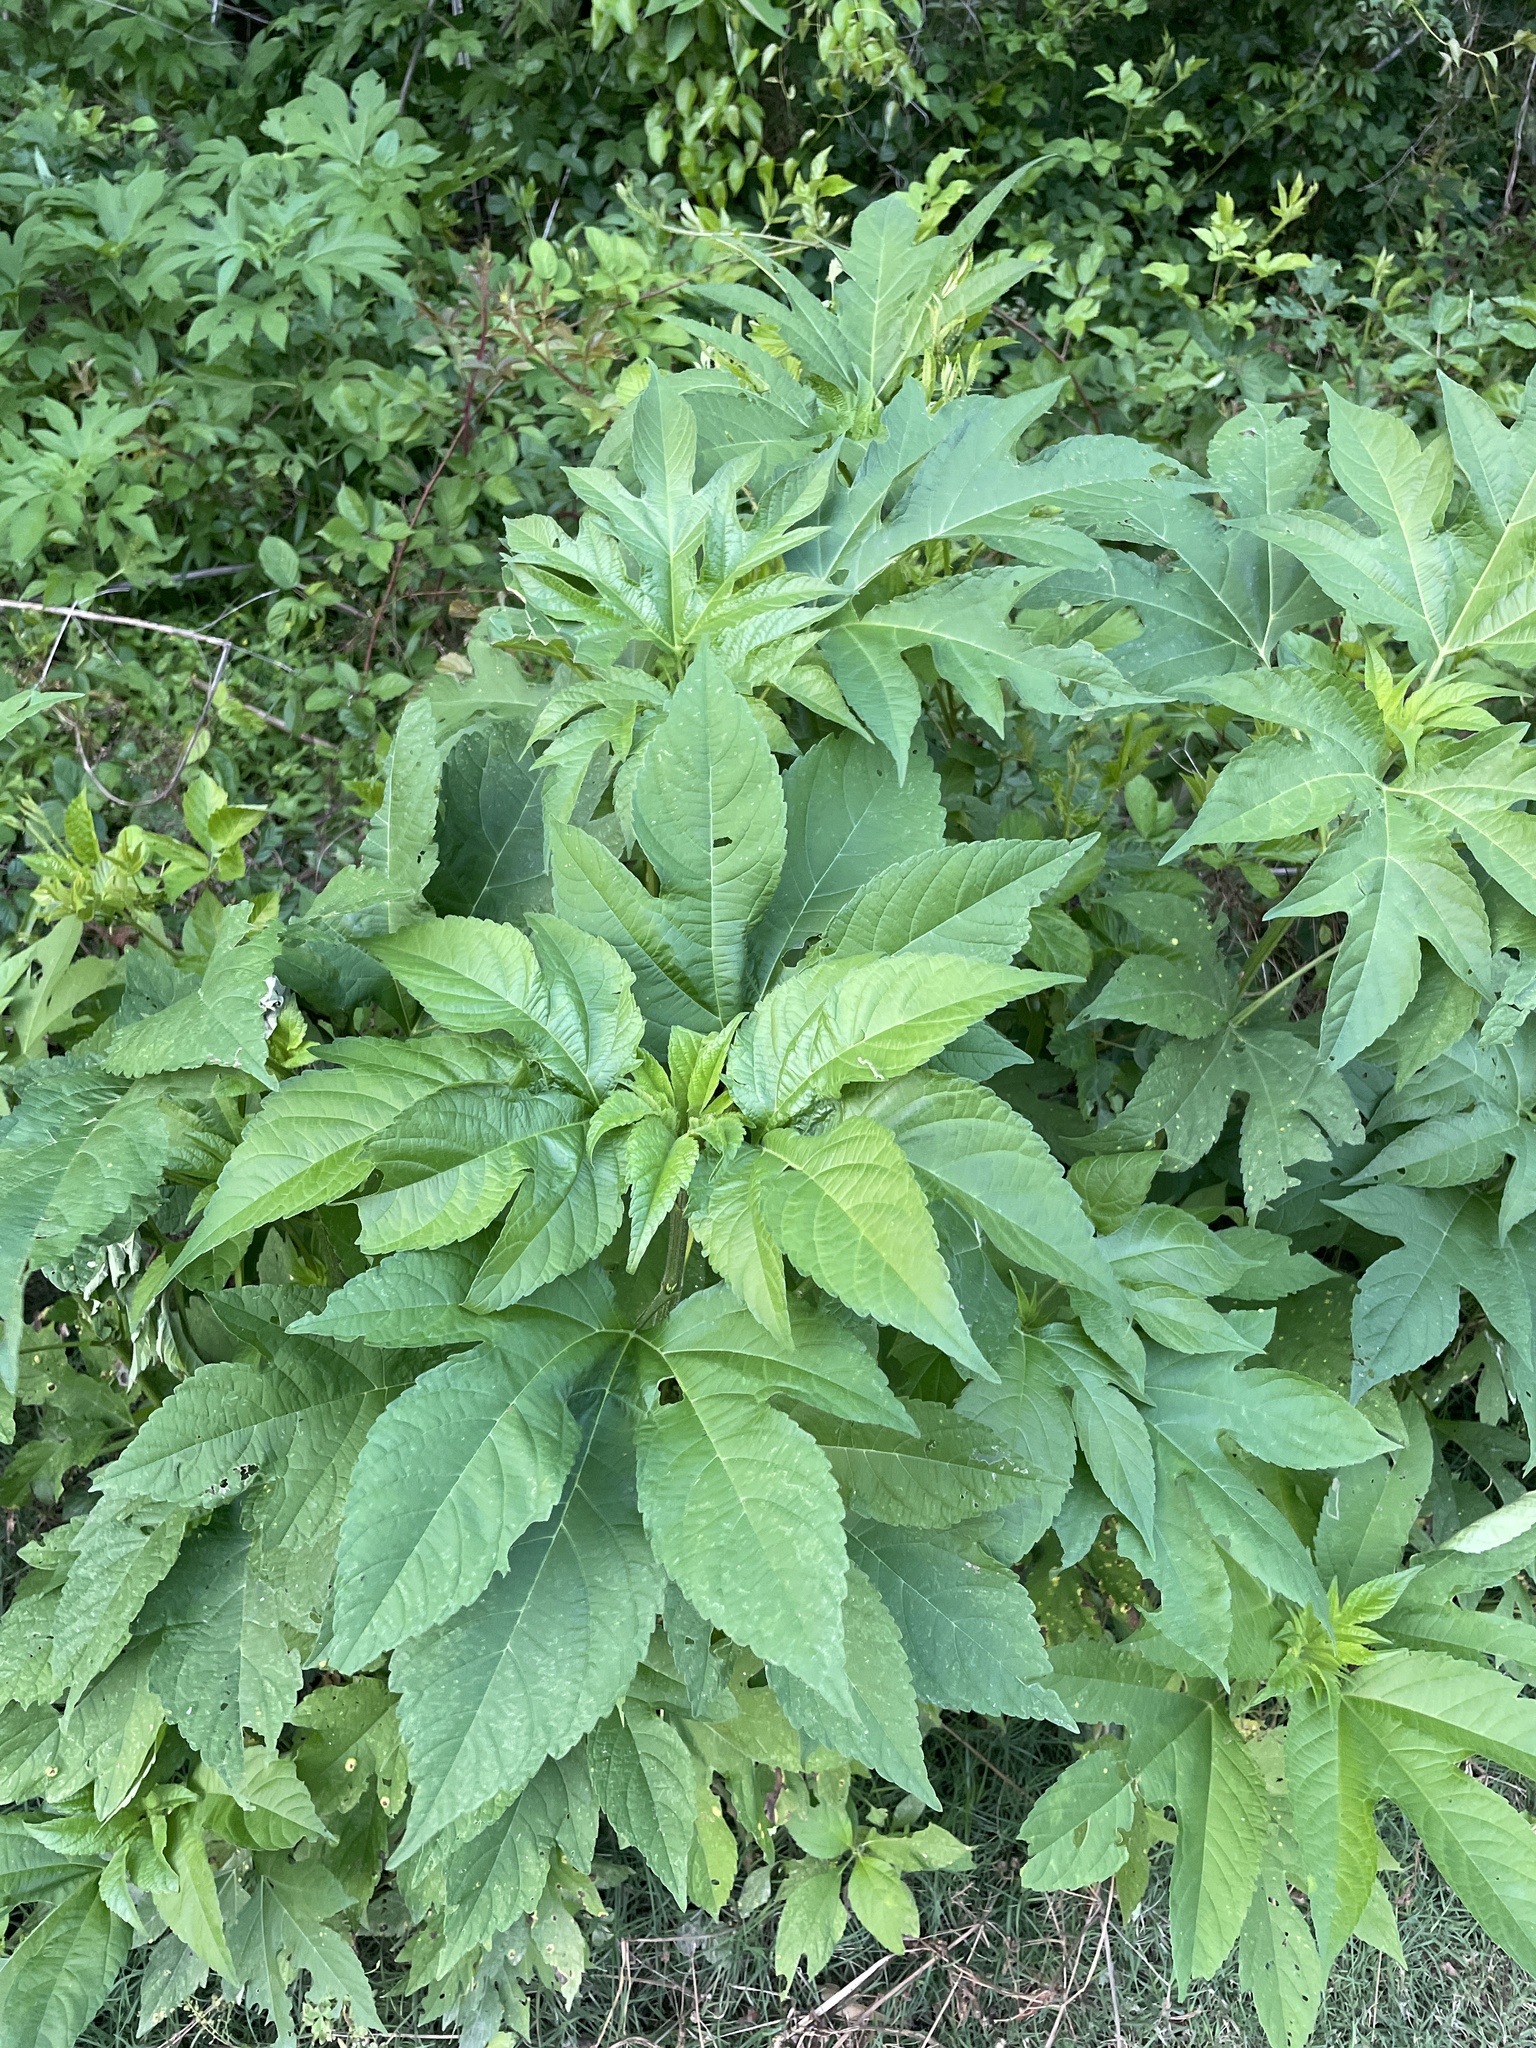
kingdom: Plantae
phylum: Tracheophyta
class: Magnoliopsida
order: Asterales
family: Asteraceae
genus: Ambrosia
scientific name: Ambrosia trifida
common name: Giant ragweed
